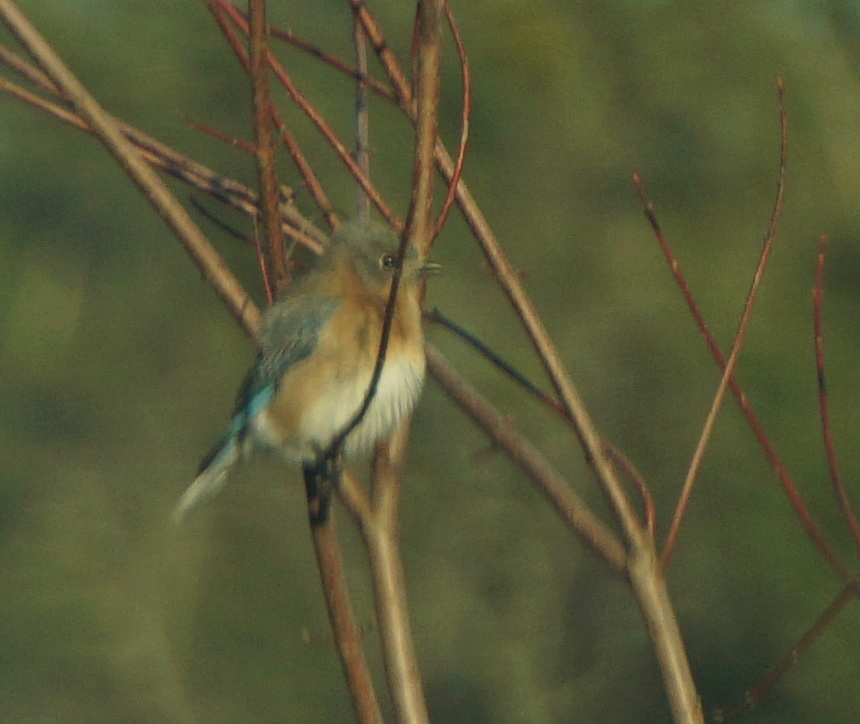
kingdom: Animalia
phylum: Chordata
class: Aves
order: Passeriformes
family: Turdidae
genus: Sialia
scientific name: Sialia sialis
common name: Eastern bluebird
